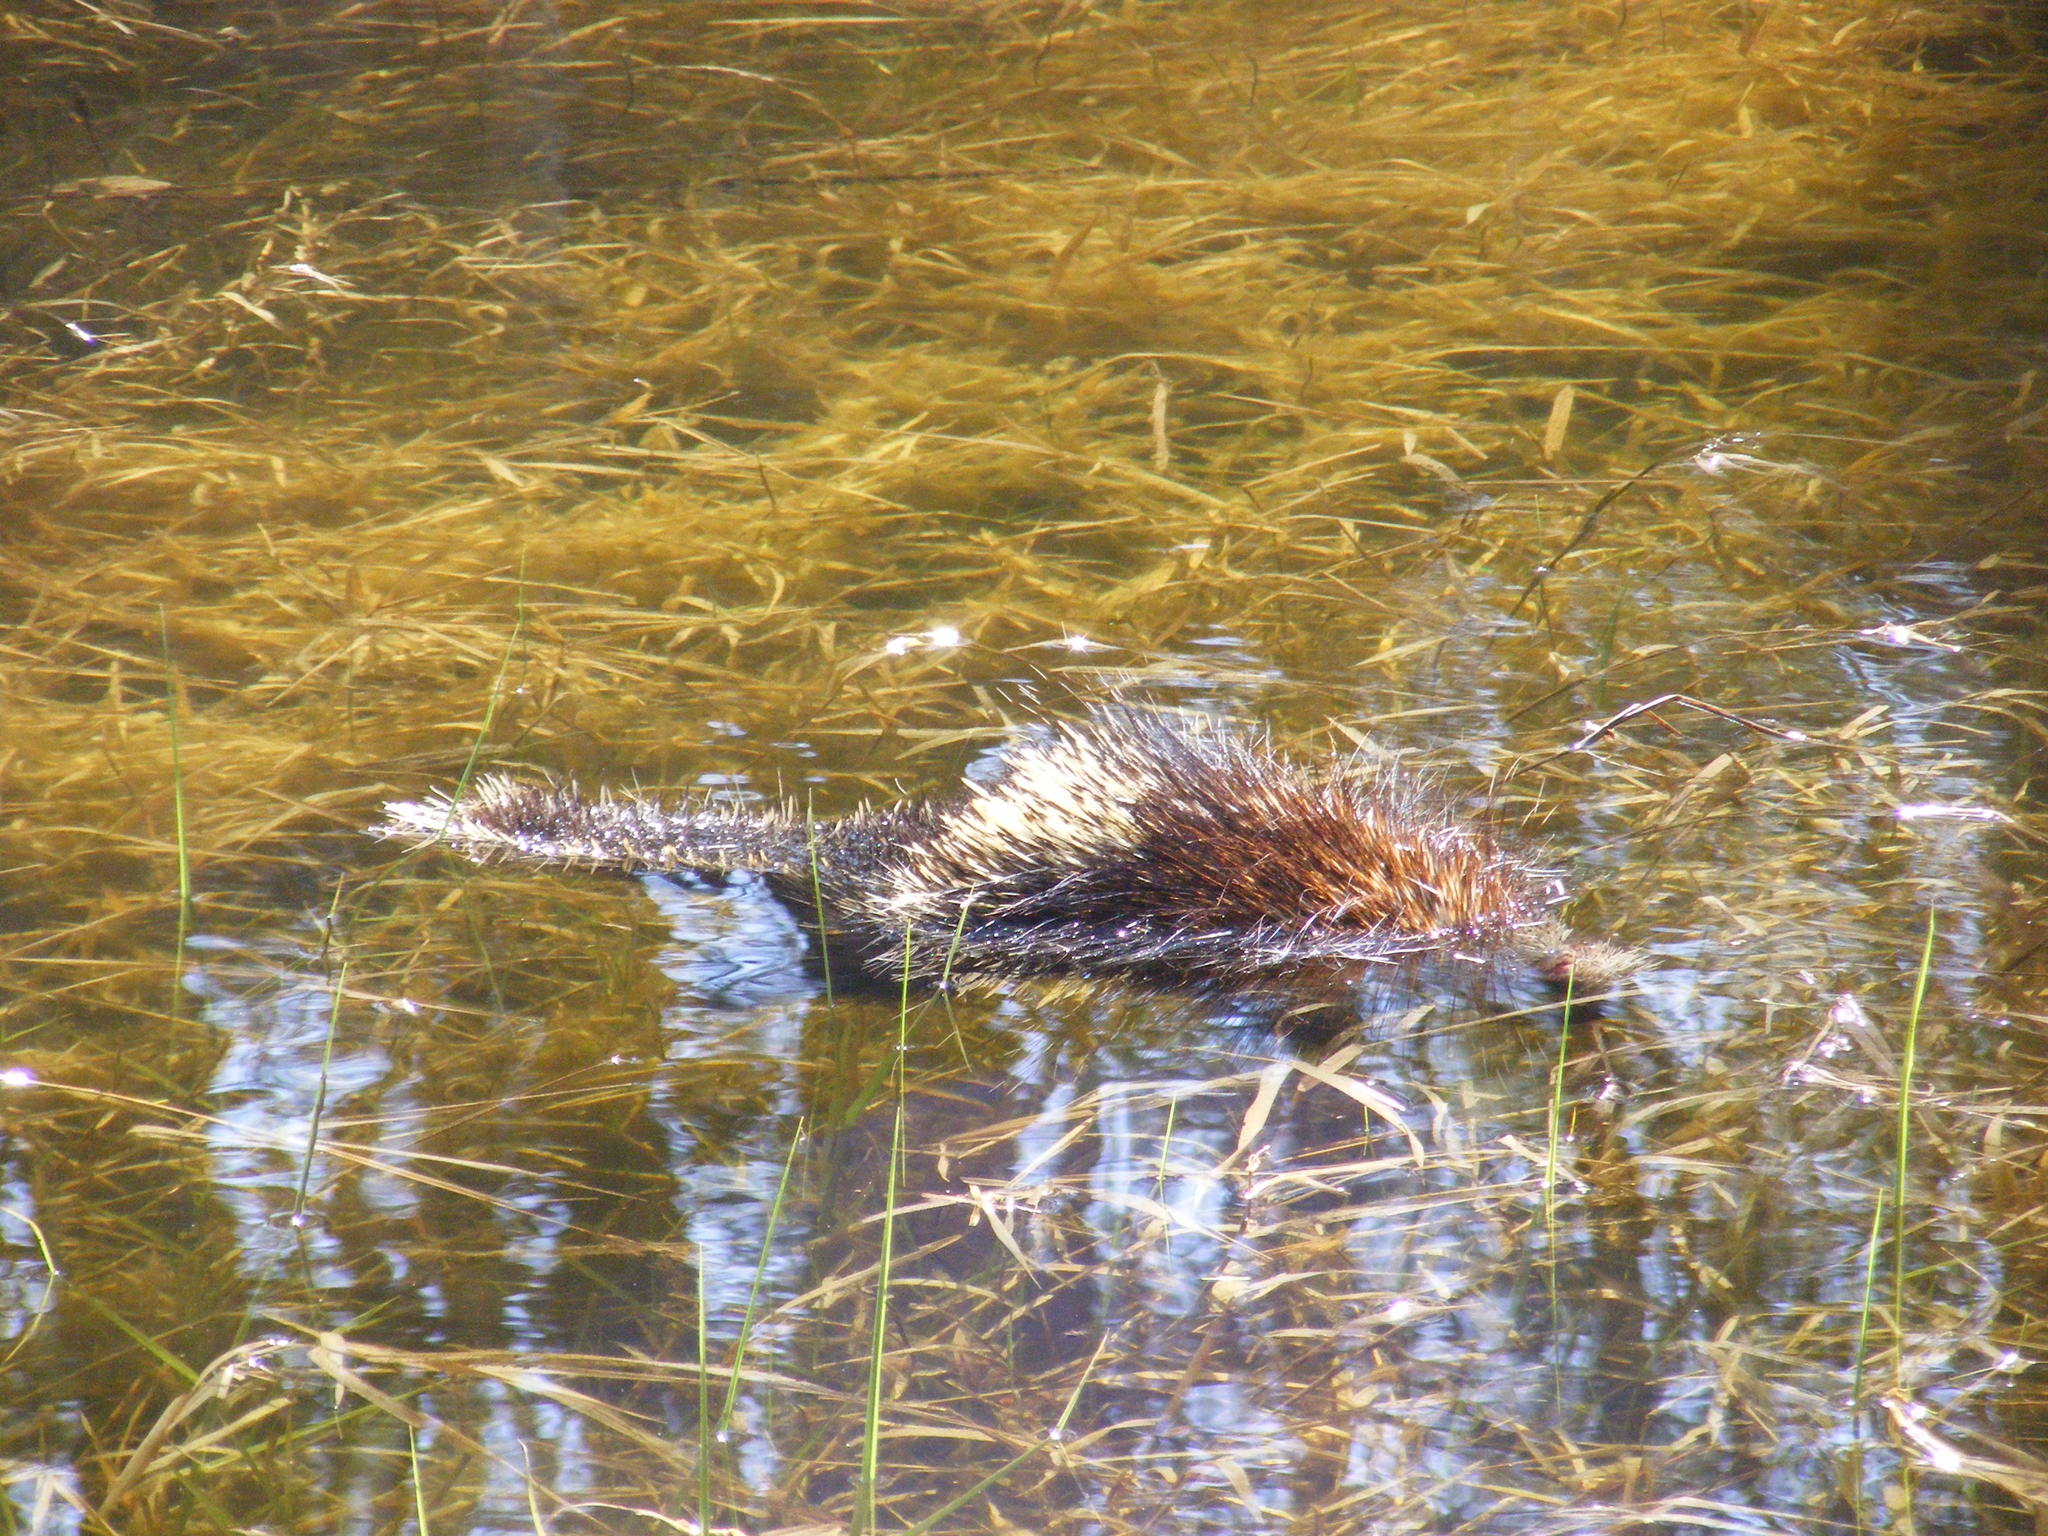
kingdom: Animalia
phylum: Chordata
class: Mammalia
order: Rodentia
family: Erethizontidae
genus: Erethizon
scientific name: Erethizon dorsatus
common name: North american porcupine
